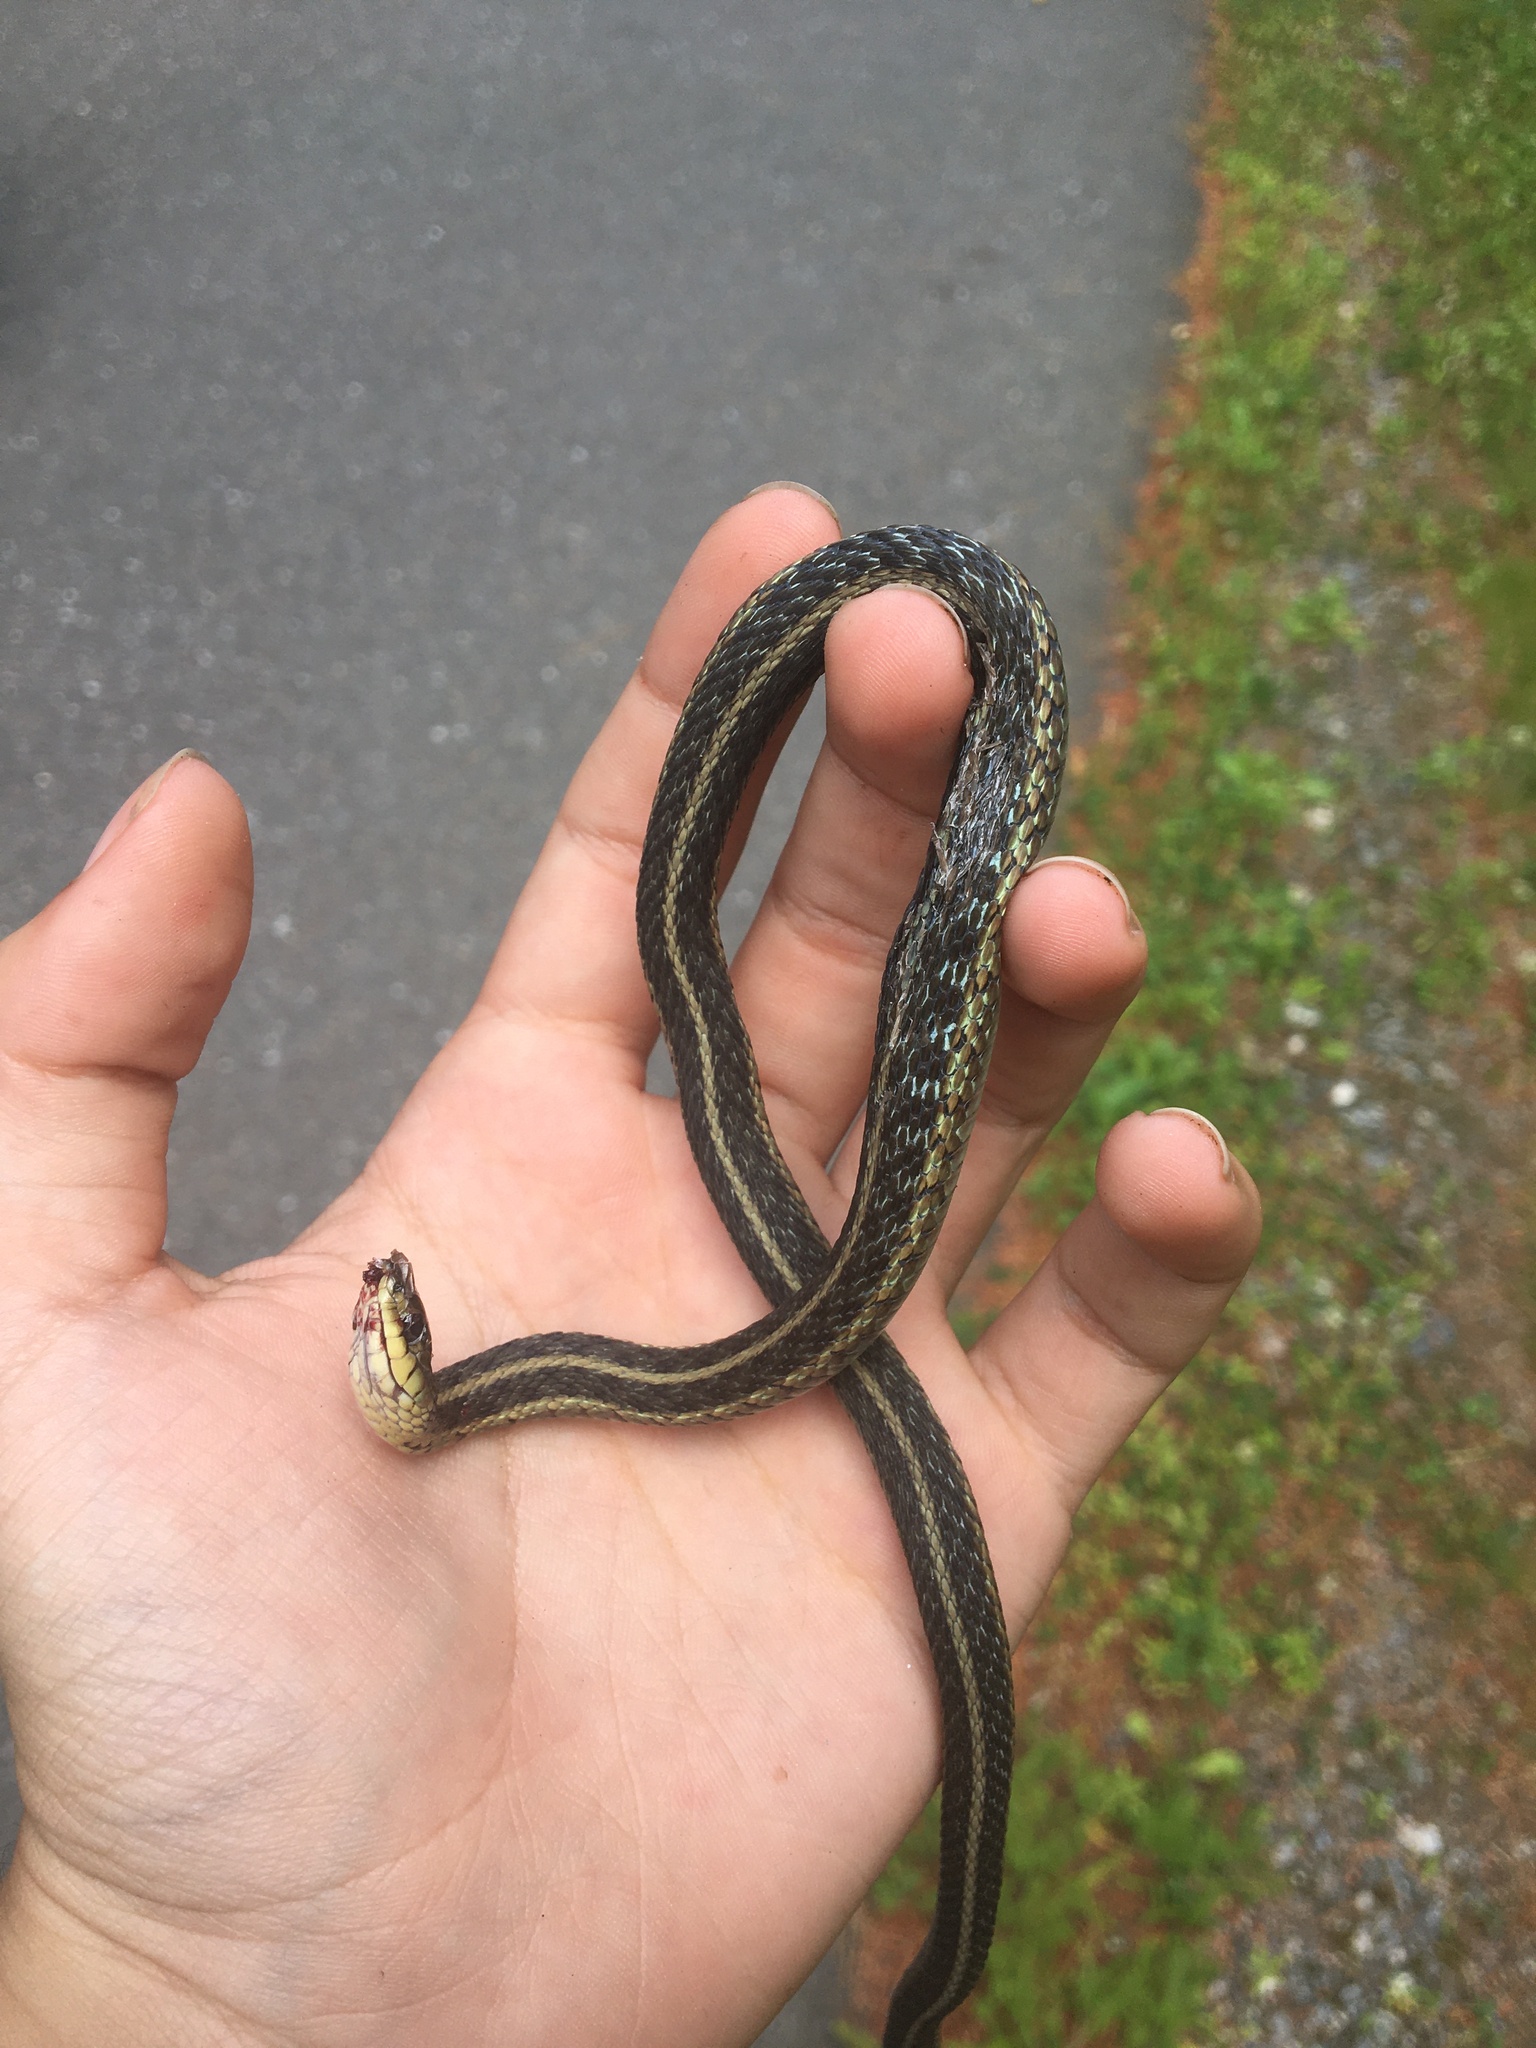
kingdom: Animalia
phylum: Chordata
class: Squamata
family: Colubridae
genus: Thamnophis
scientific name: Thamnophis sirtalis
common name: Common garter snake
